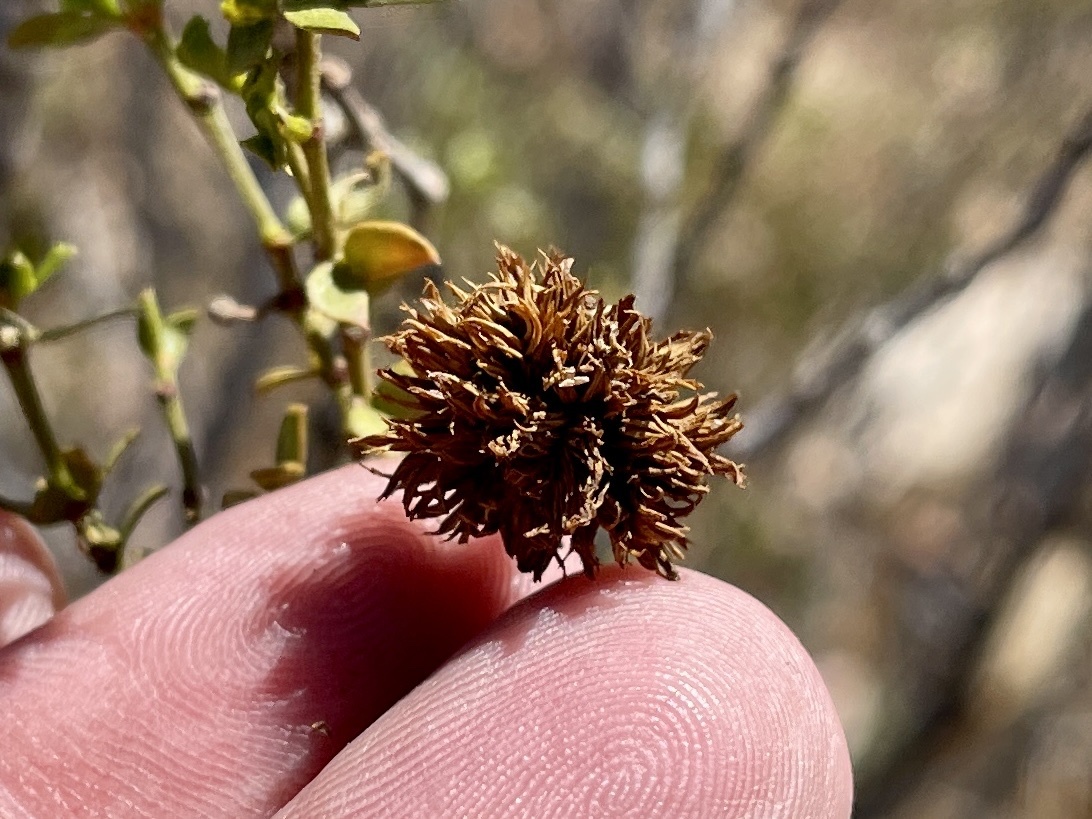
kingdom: Animalia
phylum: Arthropoda
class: Insecta
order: Diptera
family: Cecidomyiidae
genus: Asphondylia
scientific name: Asphondylia auripila
